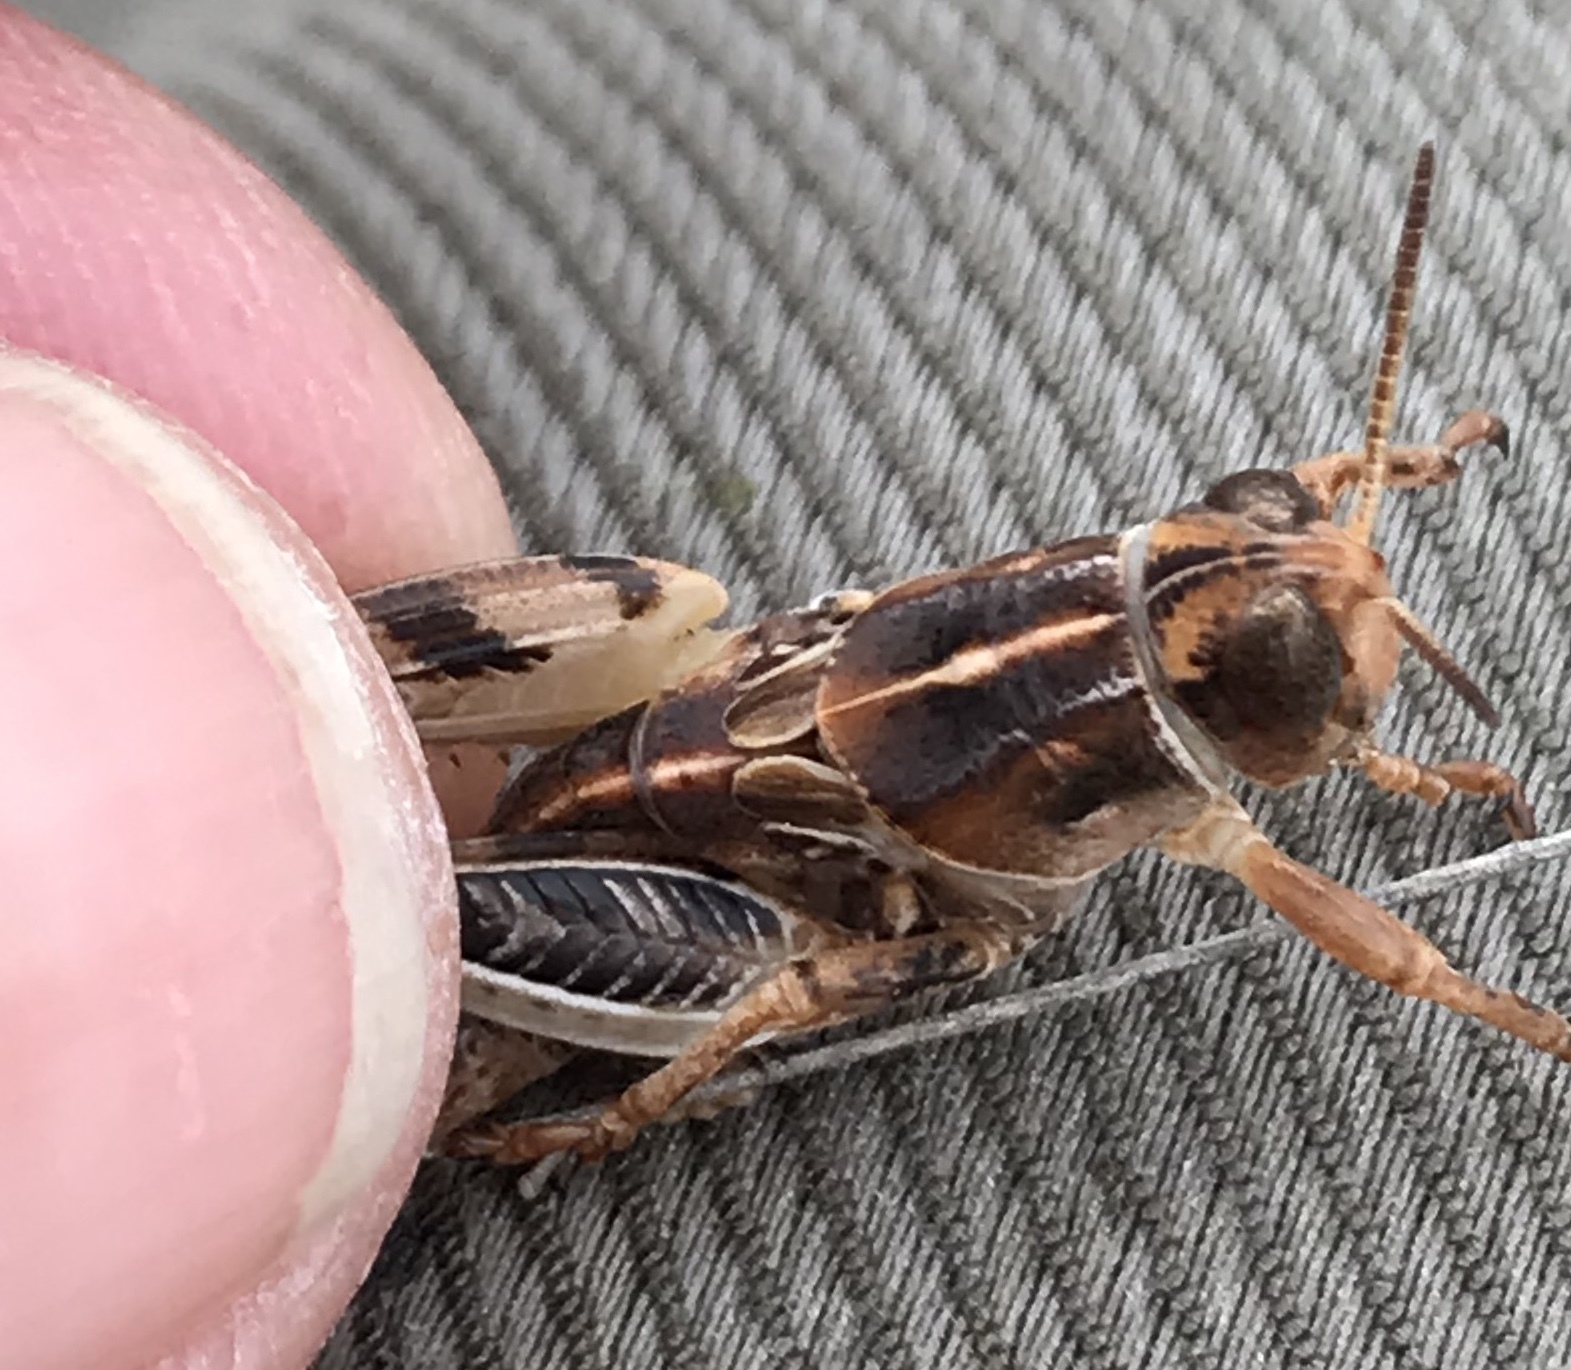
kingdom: Animalia
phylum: Arthropoda
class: Insecta
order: Orthoptera
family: Acrididae
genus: Oedaleonotus
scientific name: Oedaleonotus enigma
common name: Valley grasshopper
